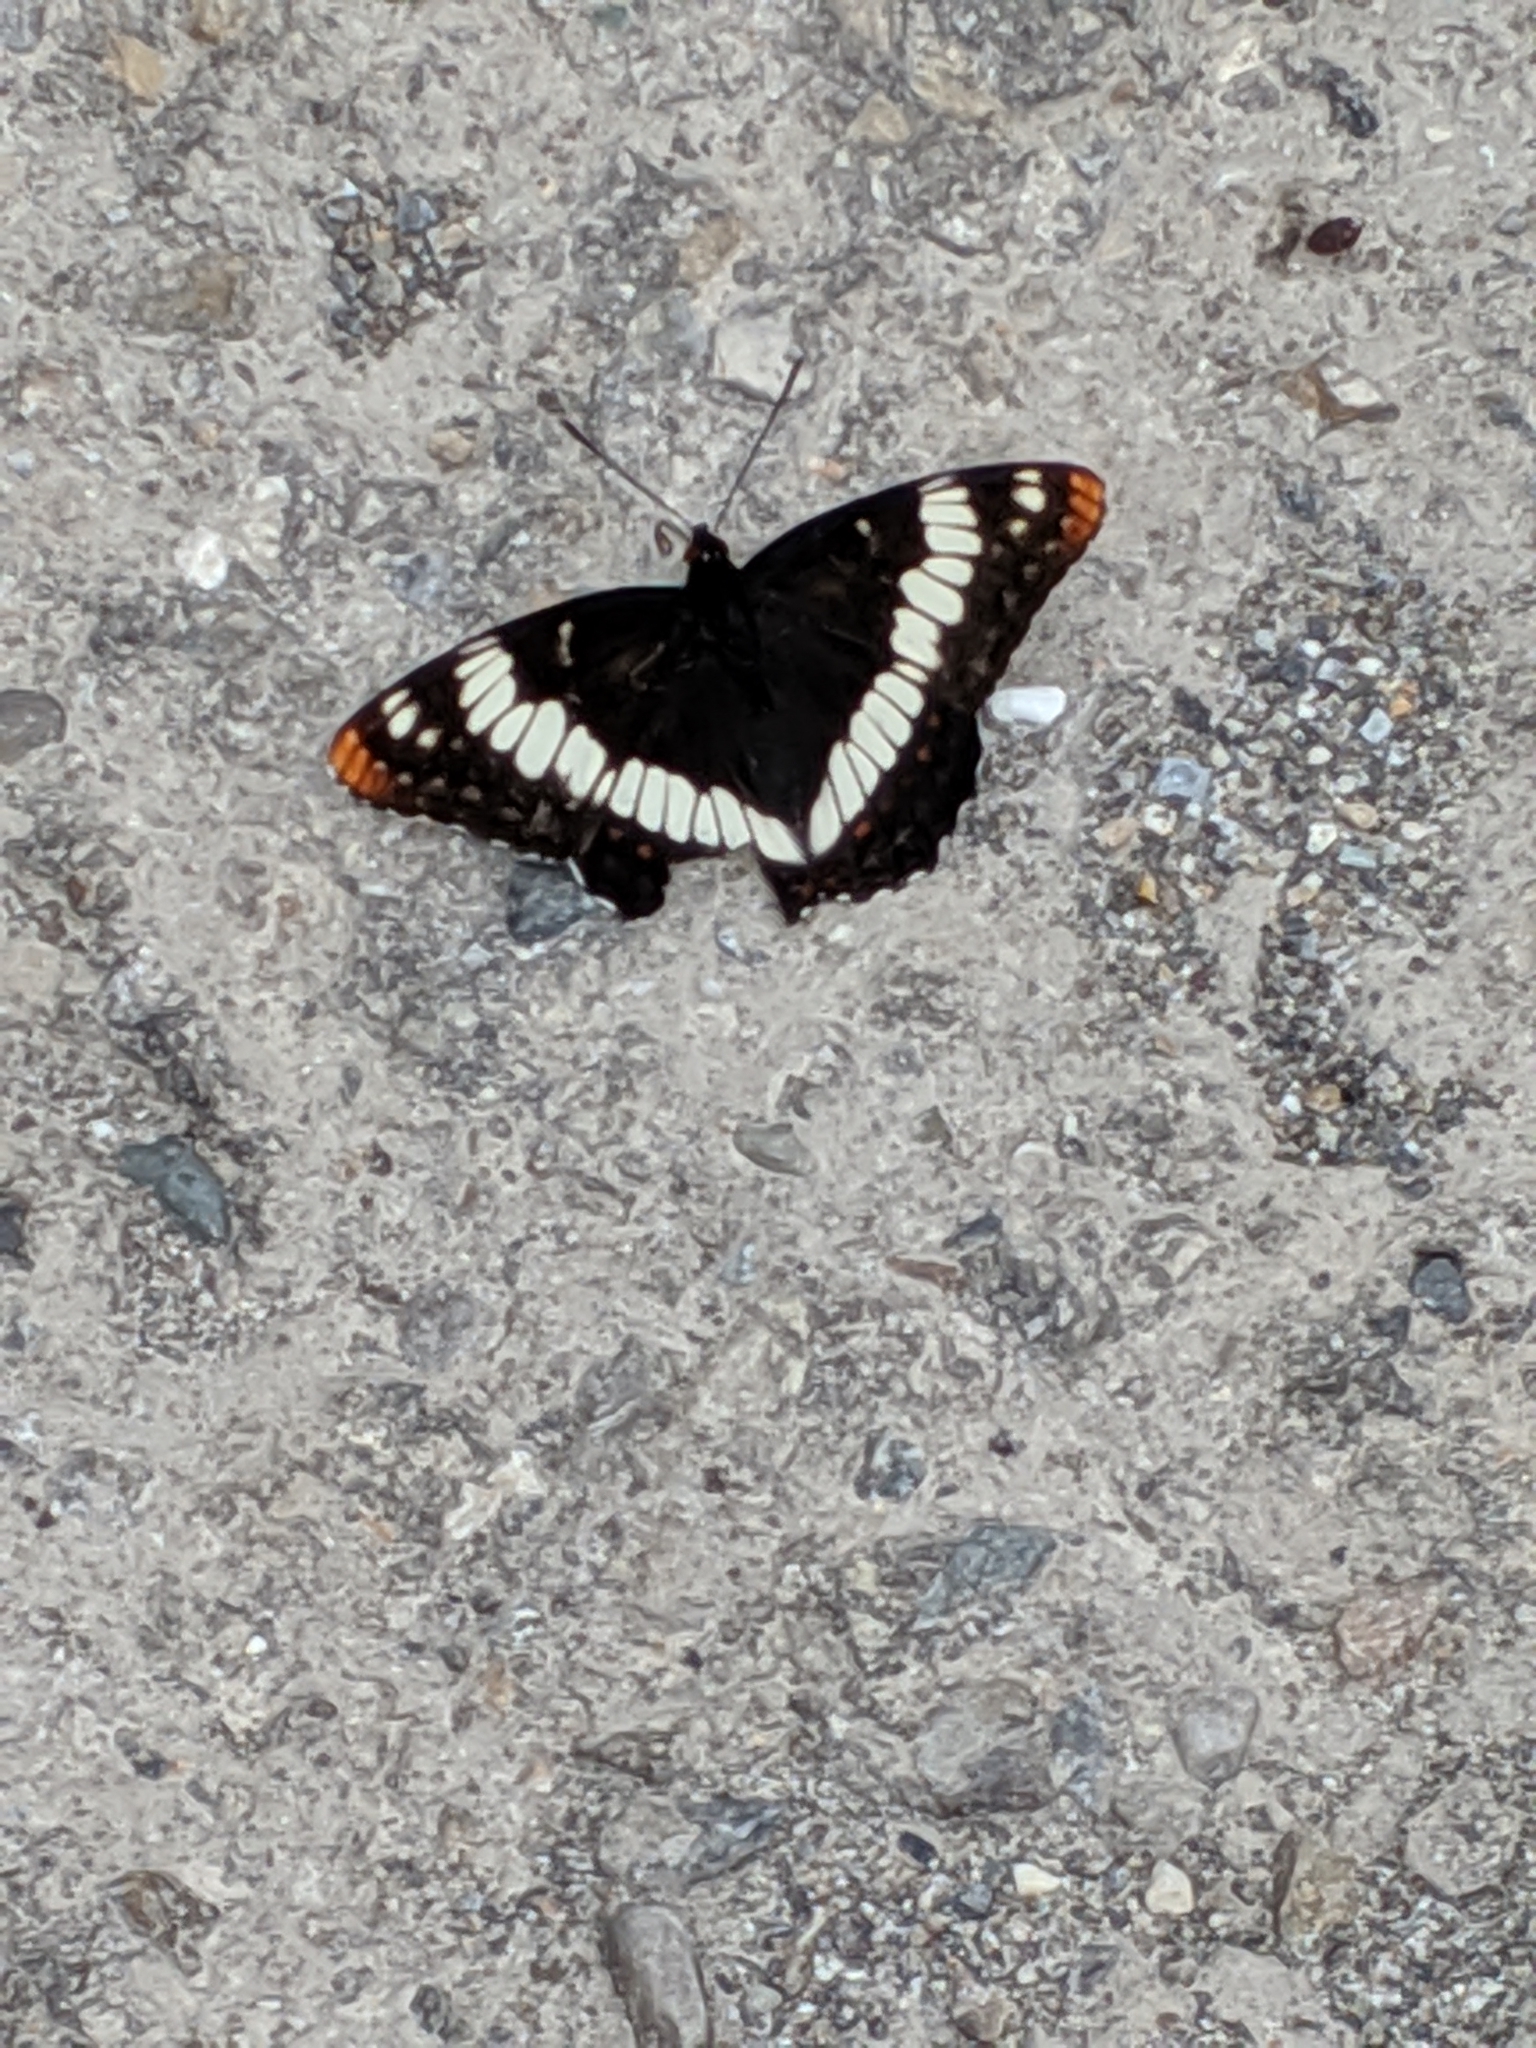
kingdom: Animalia
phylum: Arthropoda
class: Insecta
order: Lepidoptera
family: Nymphalidae
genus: Limenitis
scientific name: Limenitis lorquini
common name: Lorquin's admiral
